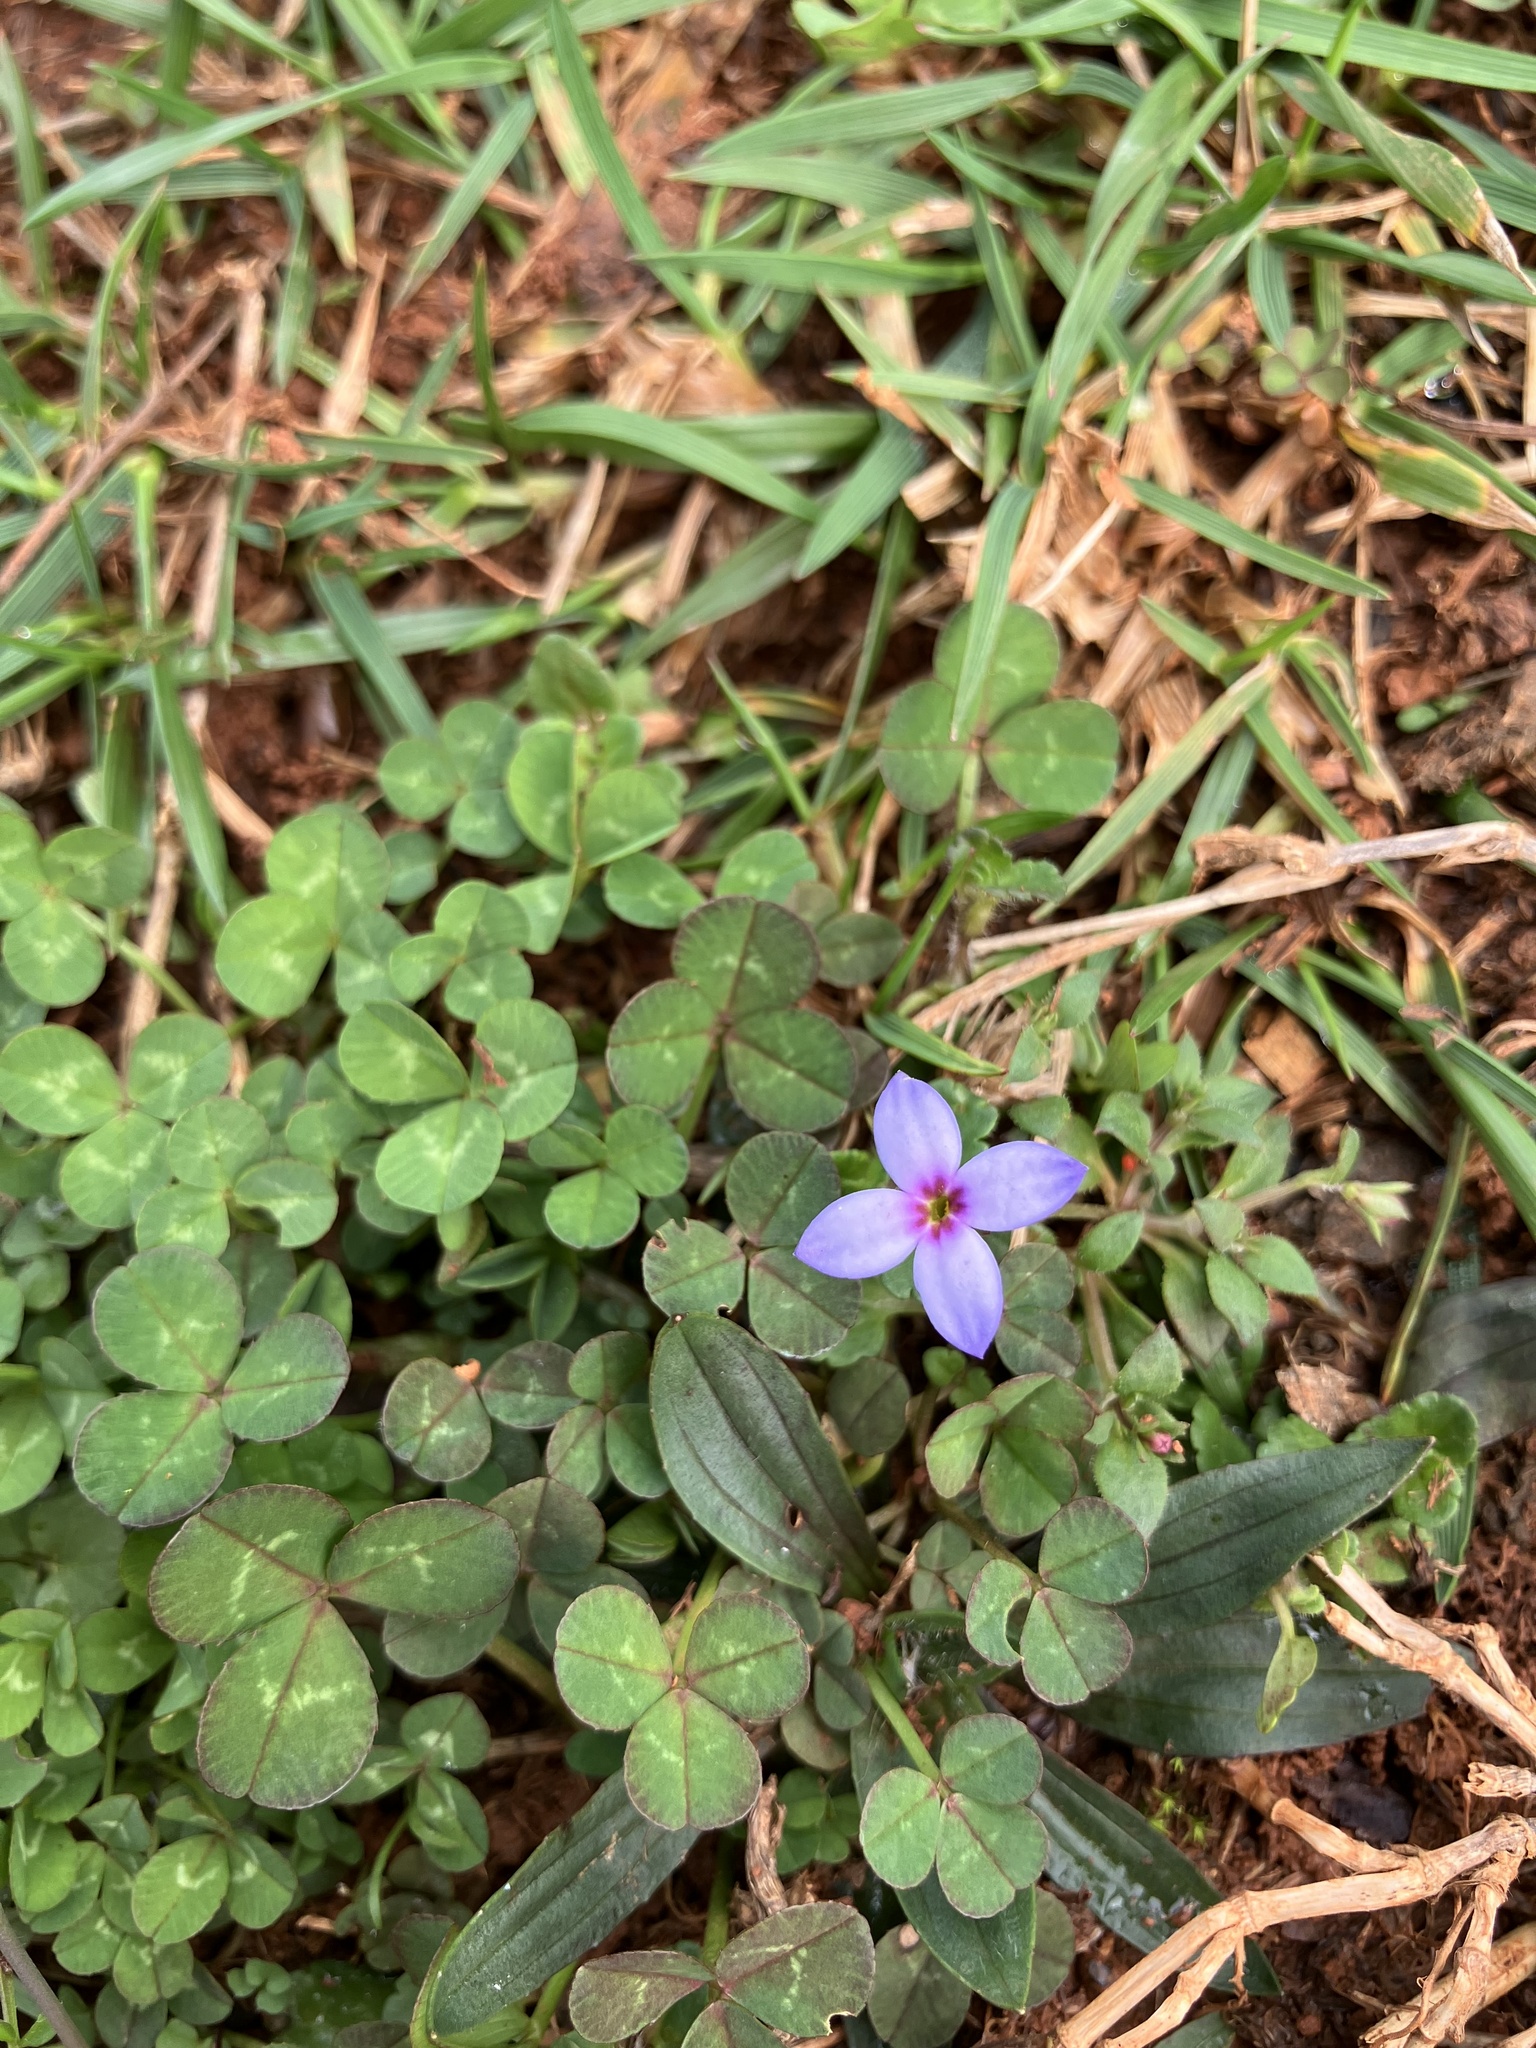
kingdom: Plantae
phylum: Tracheophyta
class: Magnoliopsida
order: Gentianales
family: Rubiaceae
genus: Houstonia
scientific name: Houstonia pusilla
